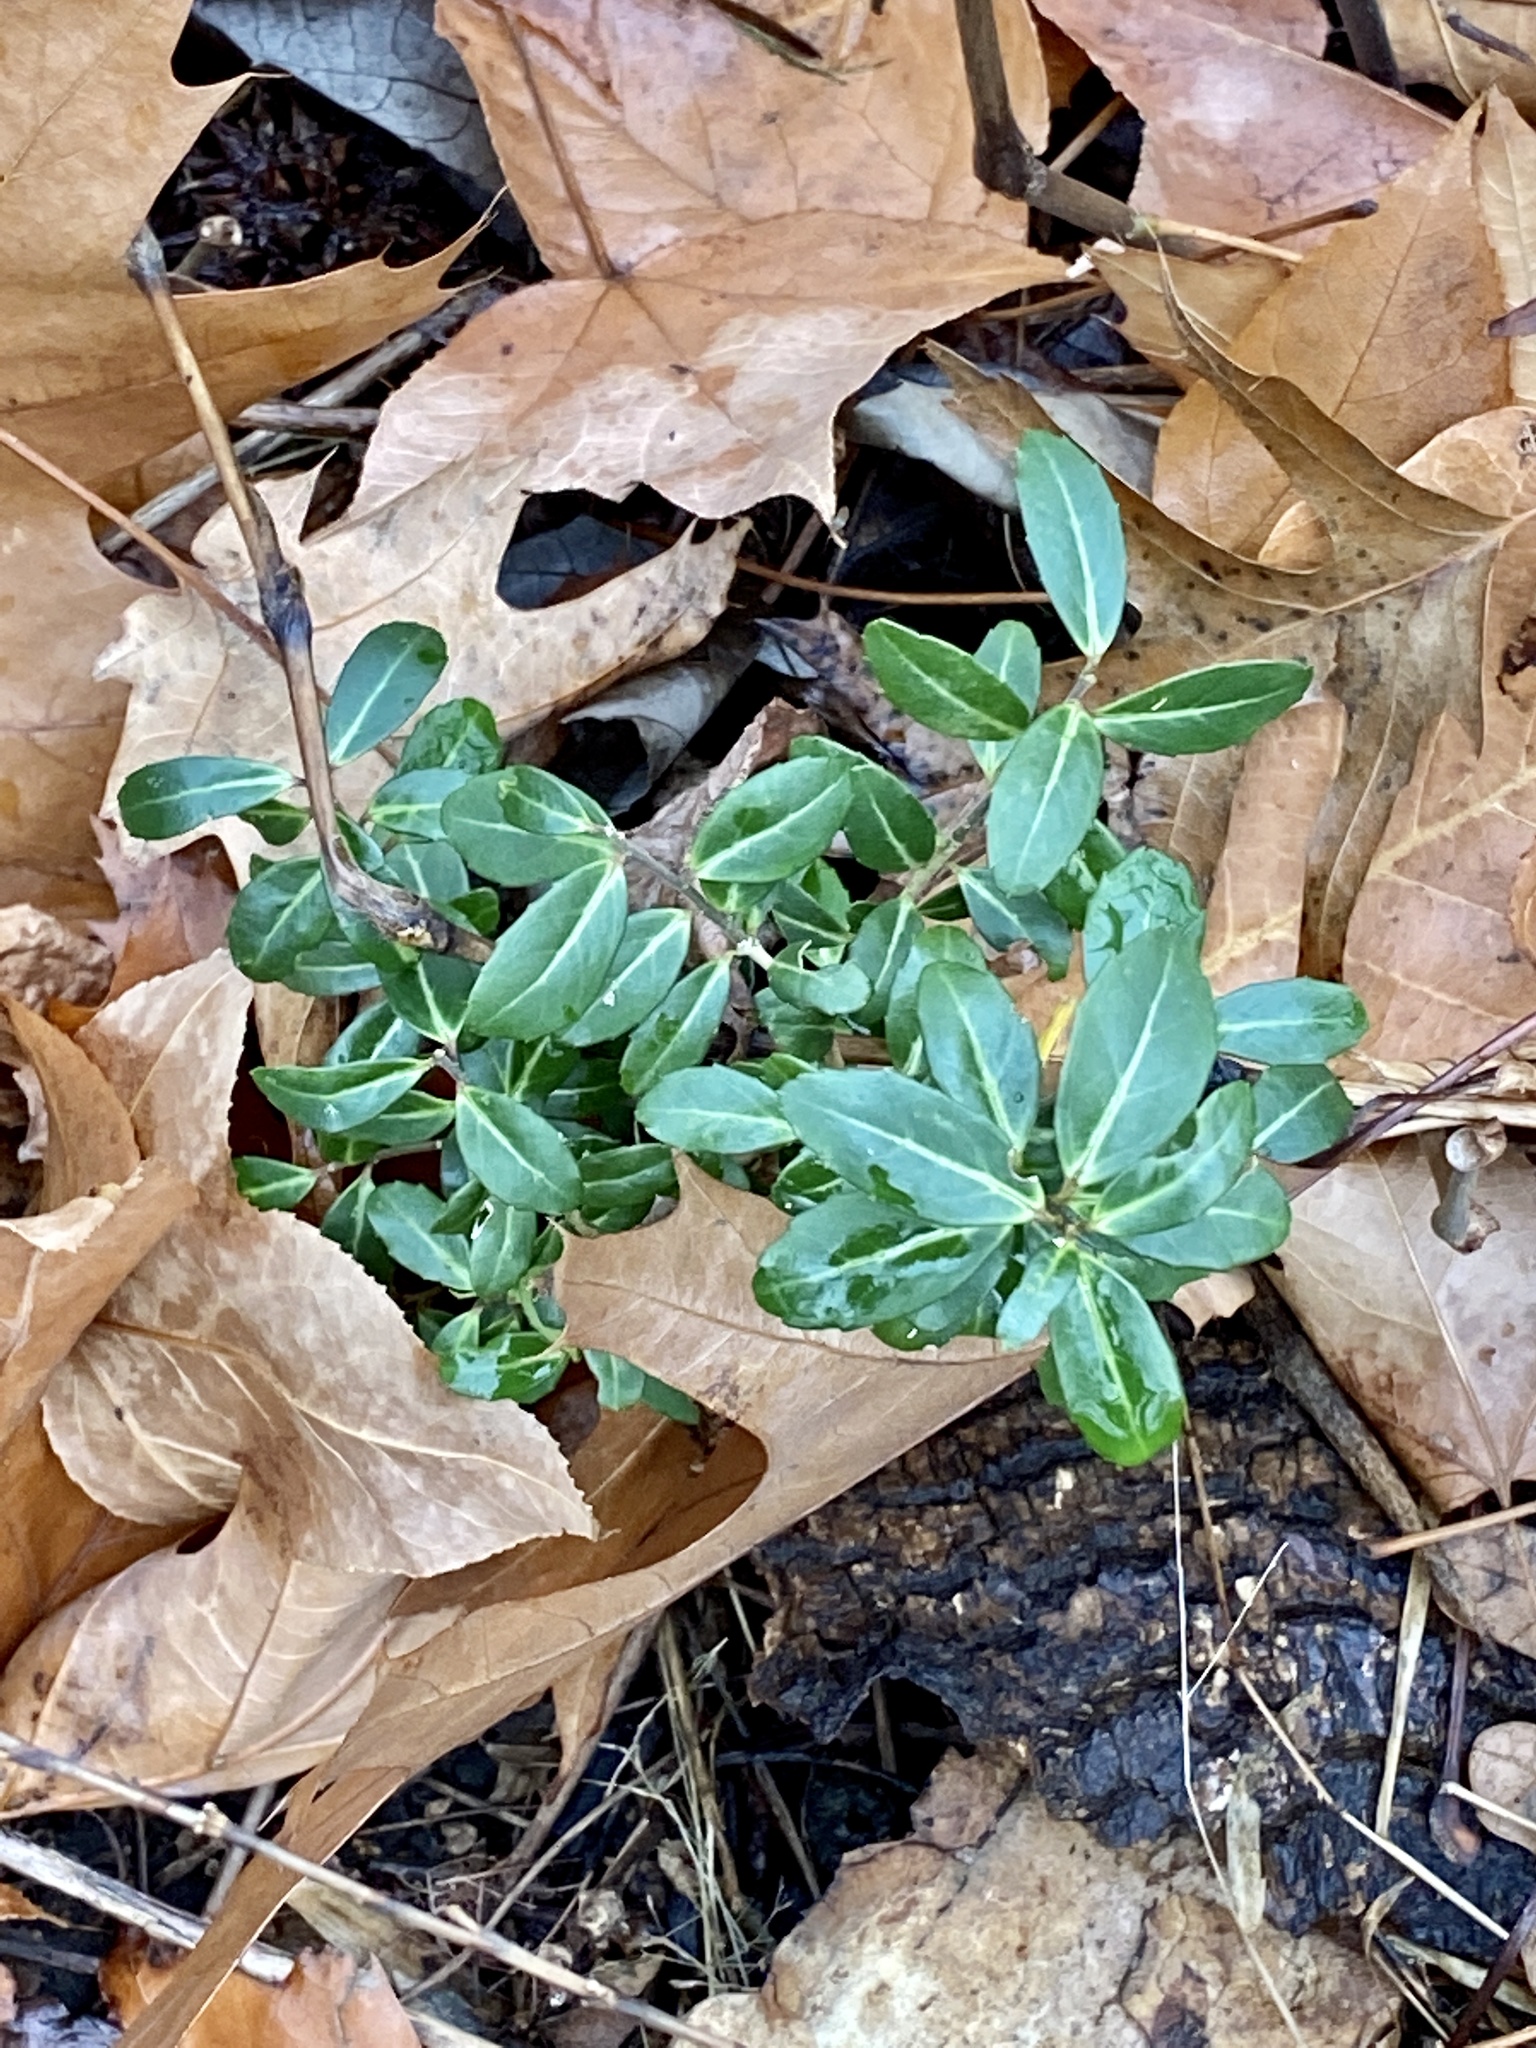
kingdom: Plantae
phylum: Tracheophyta
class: Magnoliopsida
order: Aquifoliales
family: Aquifoliaceae
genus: Ilex
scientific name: Ilex crenata
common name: Japanese holly
